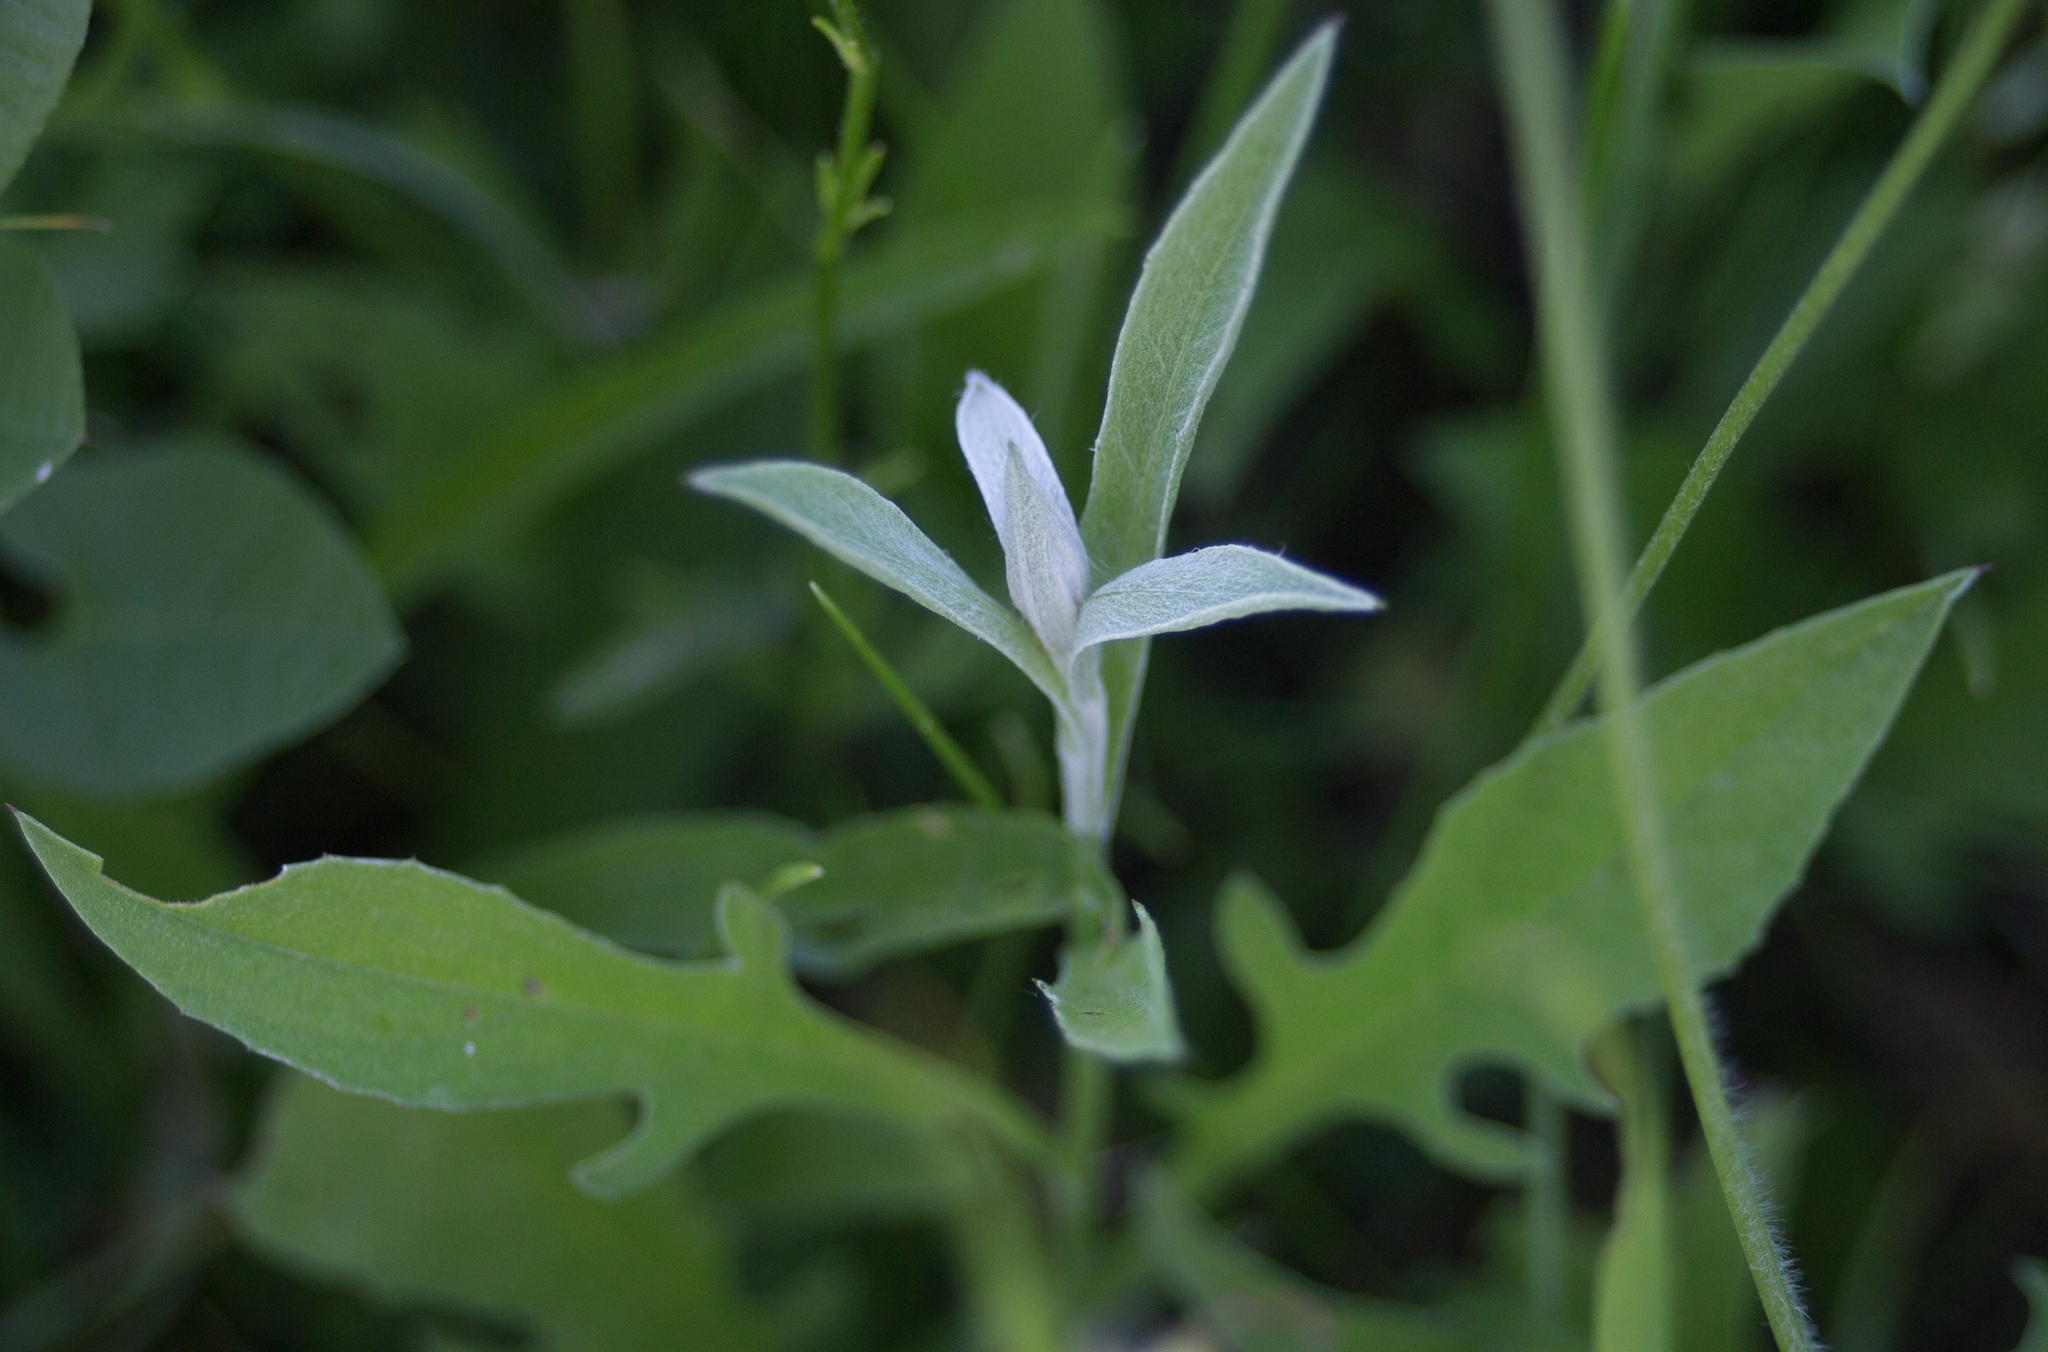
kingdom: Plantae
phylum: Tracheophyta
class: Magnoliopsida
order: Asterales
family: Asteraceae
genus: Centaurea
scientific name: Centaurea jacea
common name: Brown knapweed
